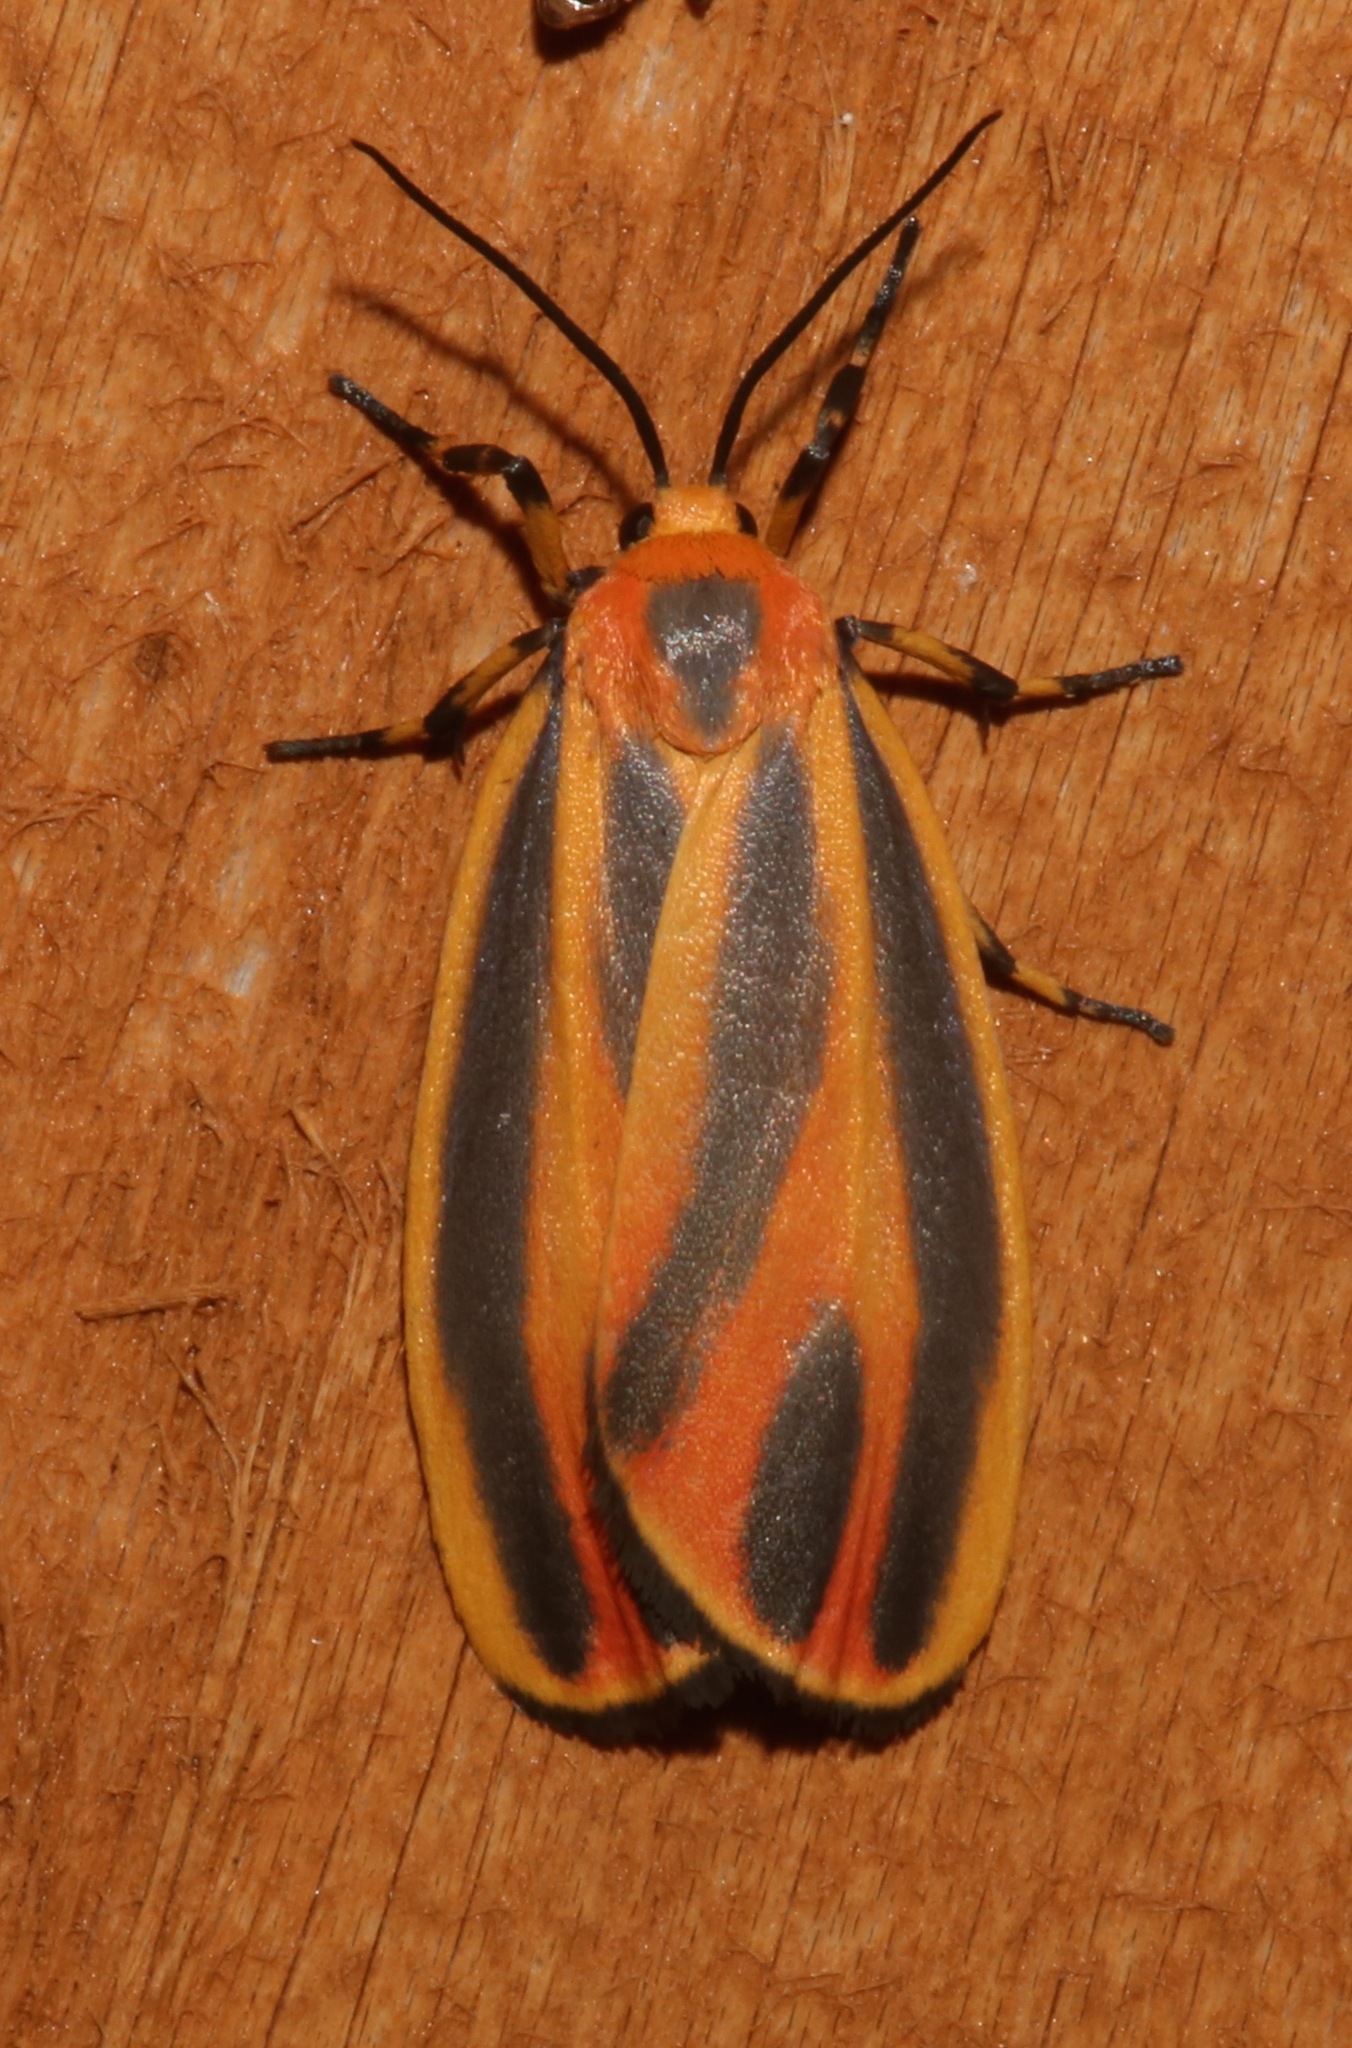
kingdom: Animalia
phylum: Arthropoda
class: Insecta
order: Lepidoptera
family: Erebidae
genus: Hypoprepia
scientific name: Hypoprepia fucosa
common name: Painted lichen moth
